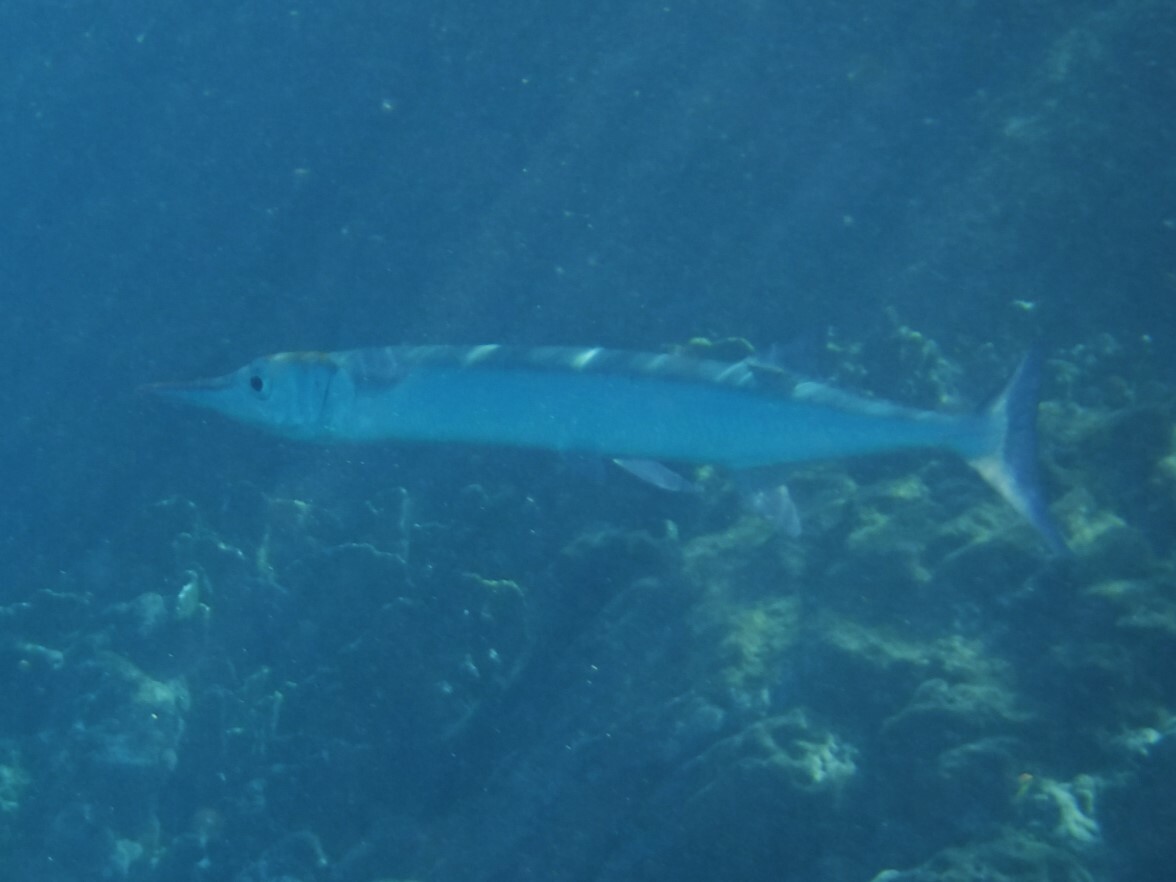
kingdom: Animalia
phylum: Chordata
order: Beloniformes
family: Belonidae
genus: Tylosurus
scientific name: Tylosurus crocodilus
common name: Houndfish
